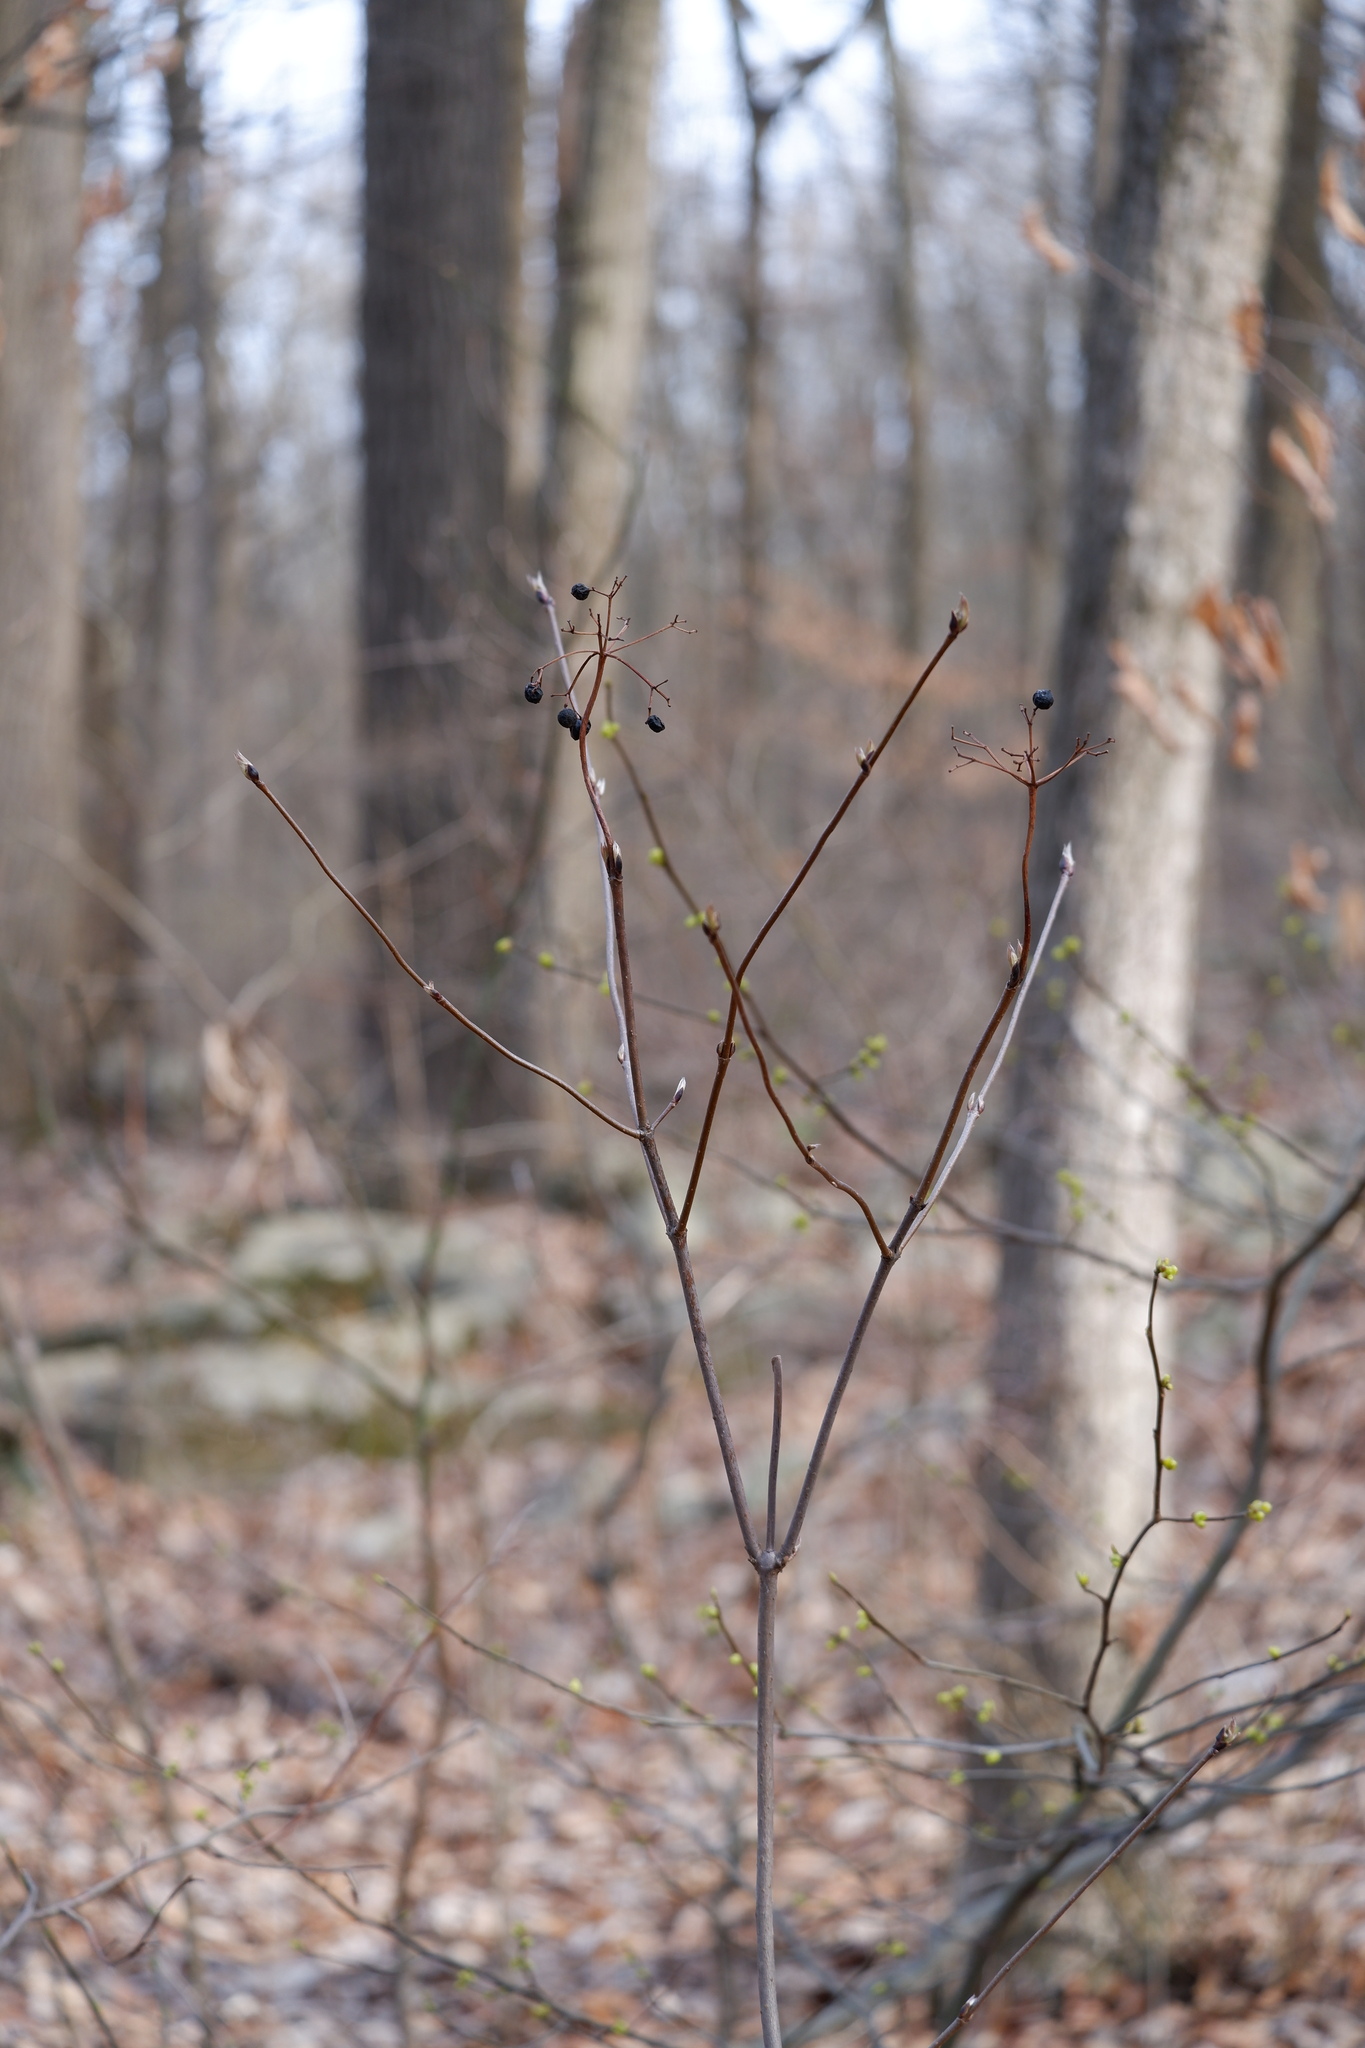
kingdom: Plantae
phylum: Tracheophyta
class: Magnoliopsida
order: Dipsacales
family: Viburnaceae
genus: Viburnum
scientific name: Viburnum acerifolium
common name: Dockmackie
